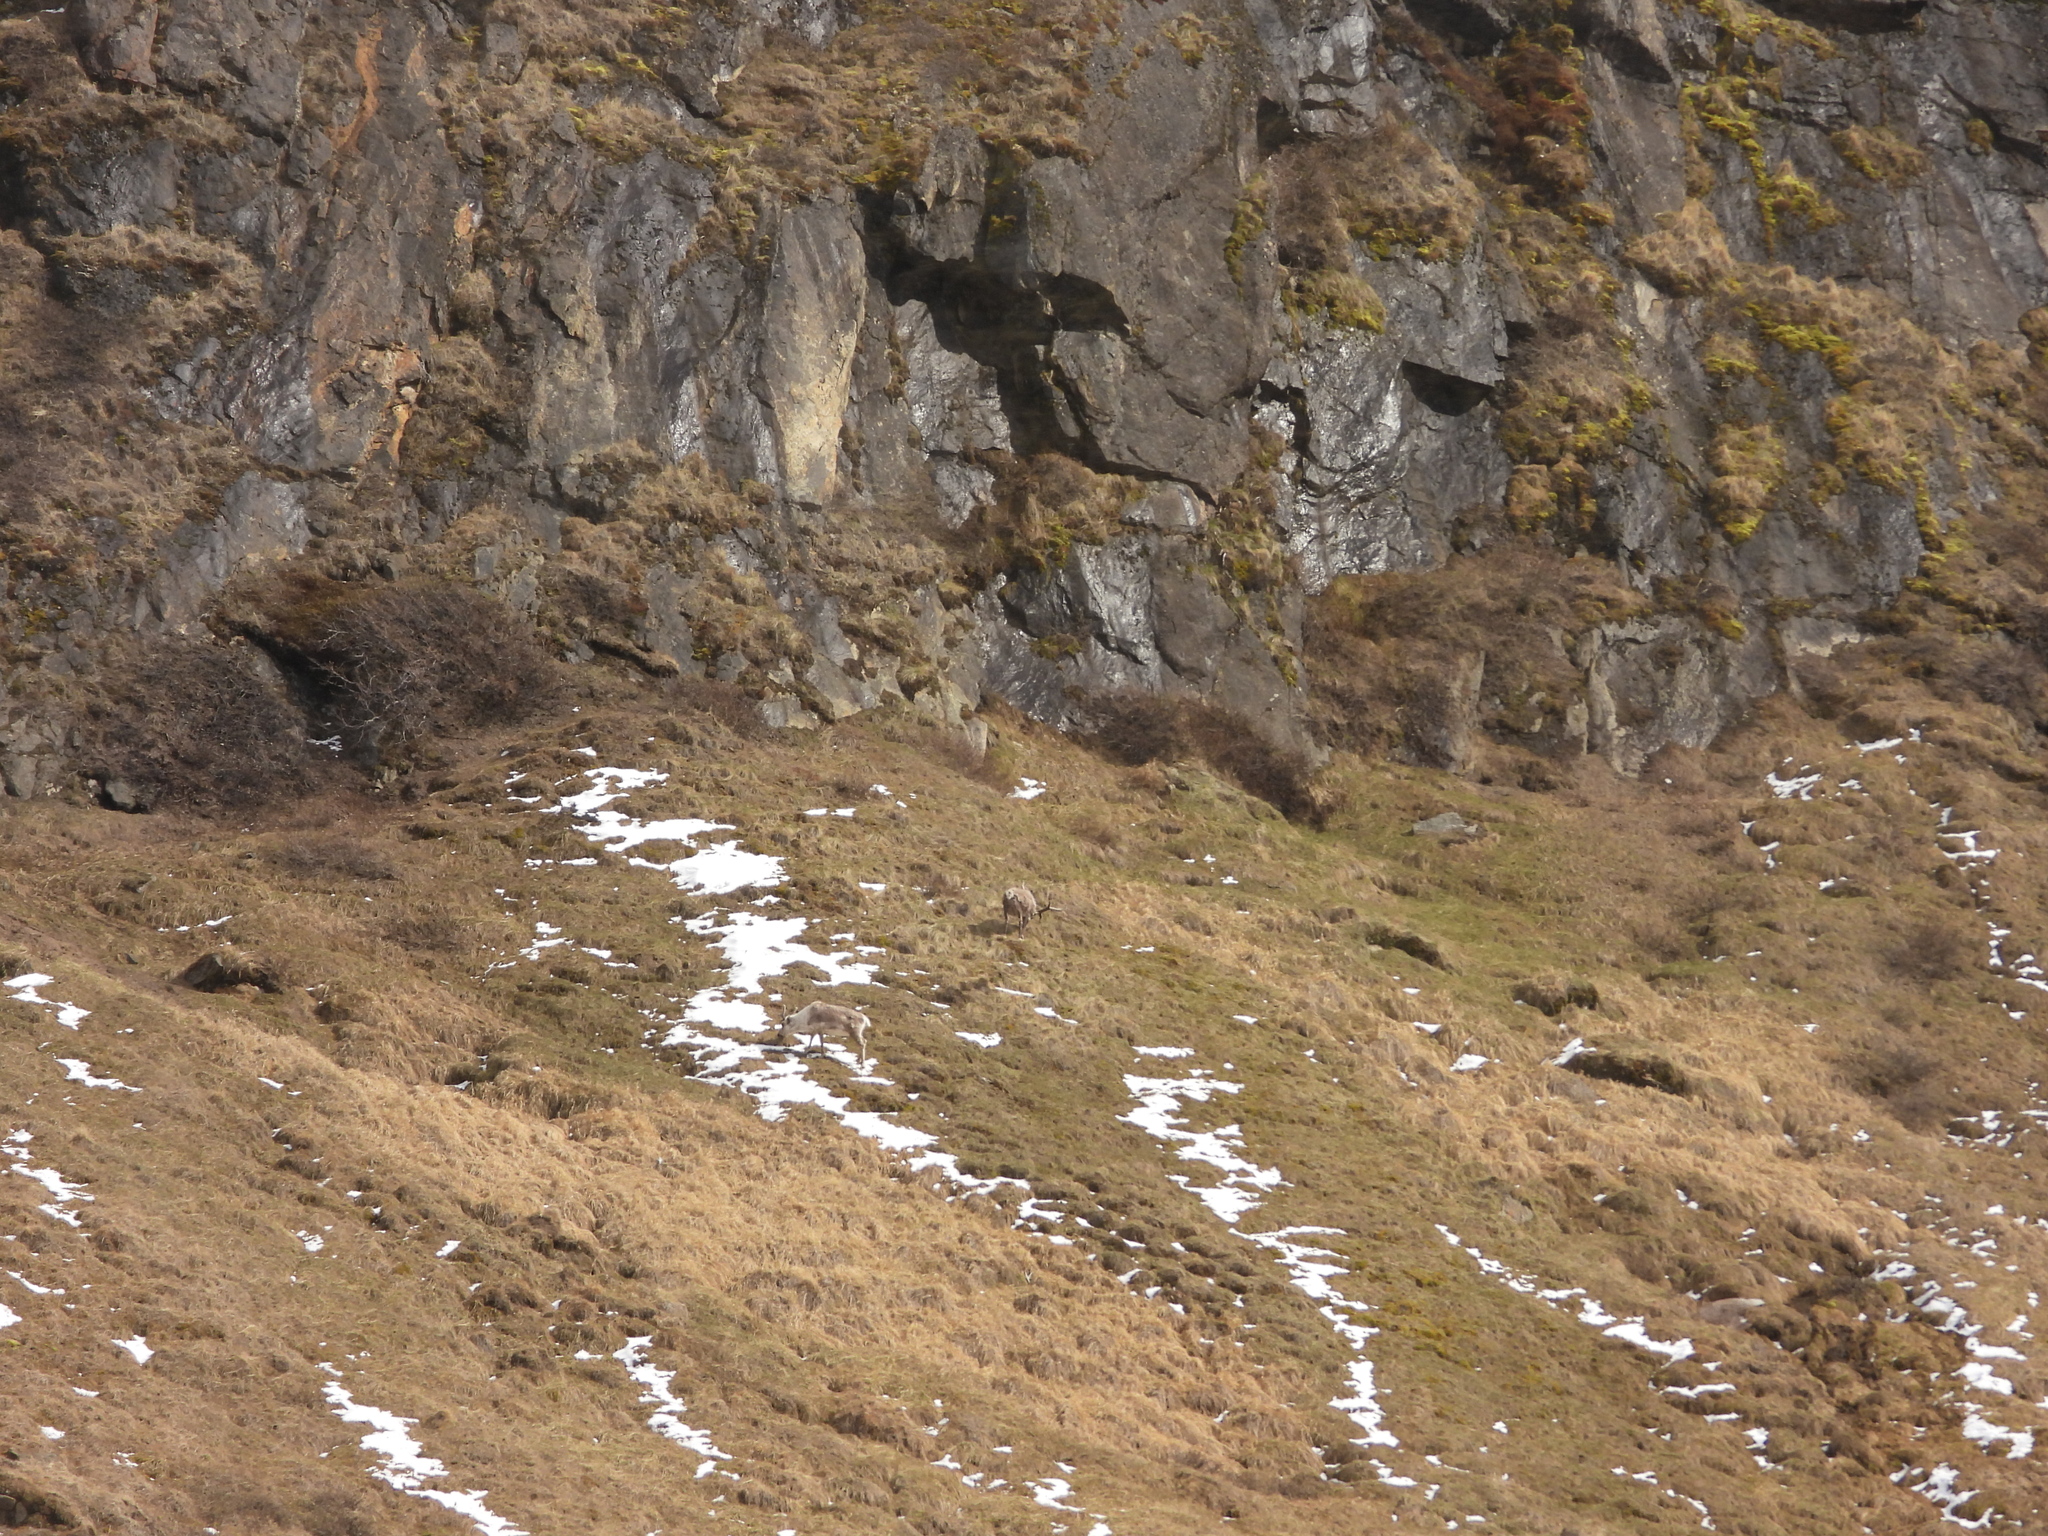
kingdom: Animalia
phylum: Chordata
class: Mammalia
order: Artiodactyla
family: Cervidae
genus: Rangifer
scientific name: Rangifer tarandus
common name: Reindeer
